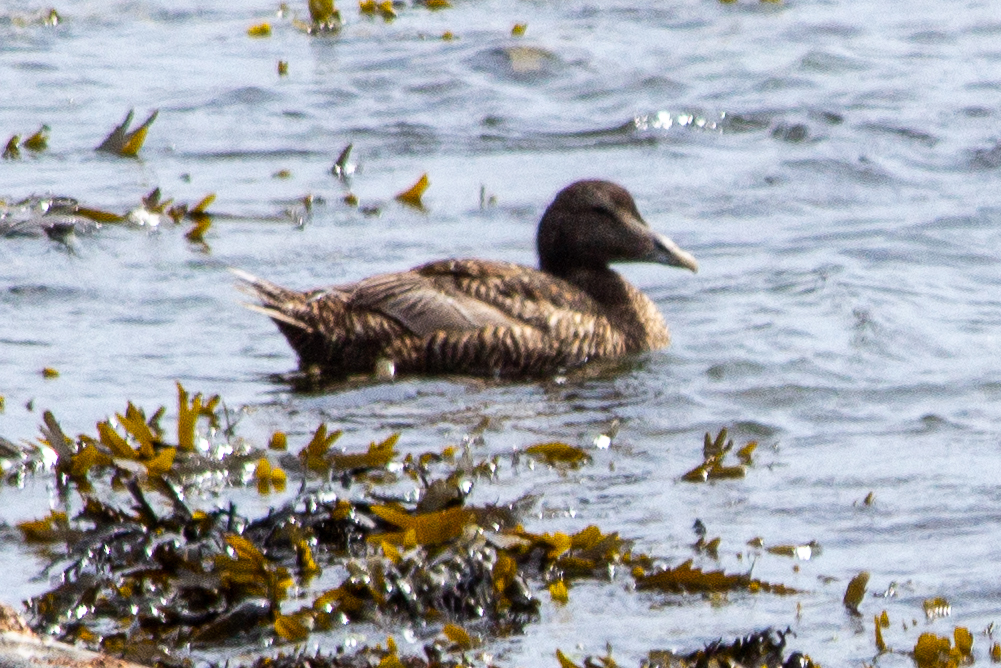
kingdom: Animalia
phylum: Chordata
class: Aves
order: Anseriformes
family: Anatidae
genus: Somateria
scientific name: Somateria mollissima
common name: Common eider
